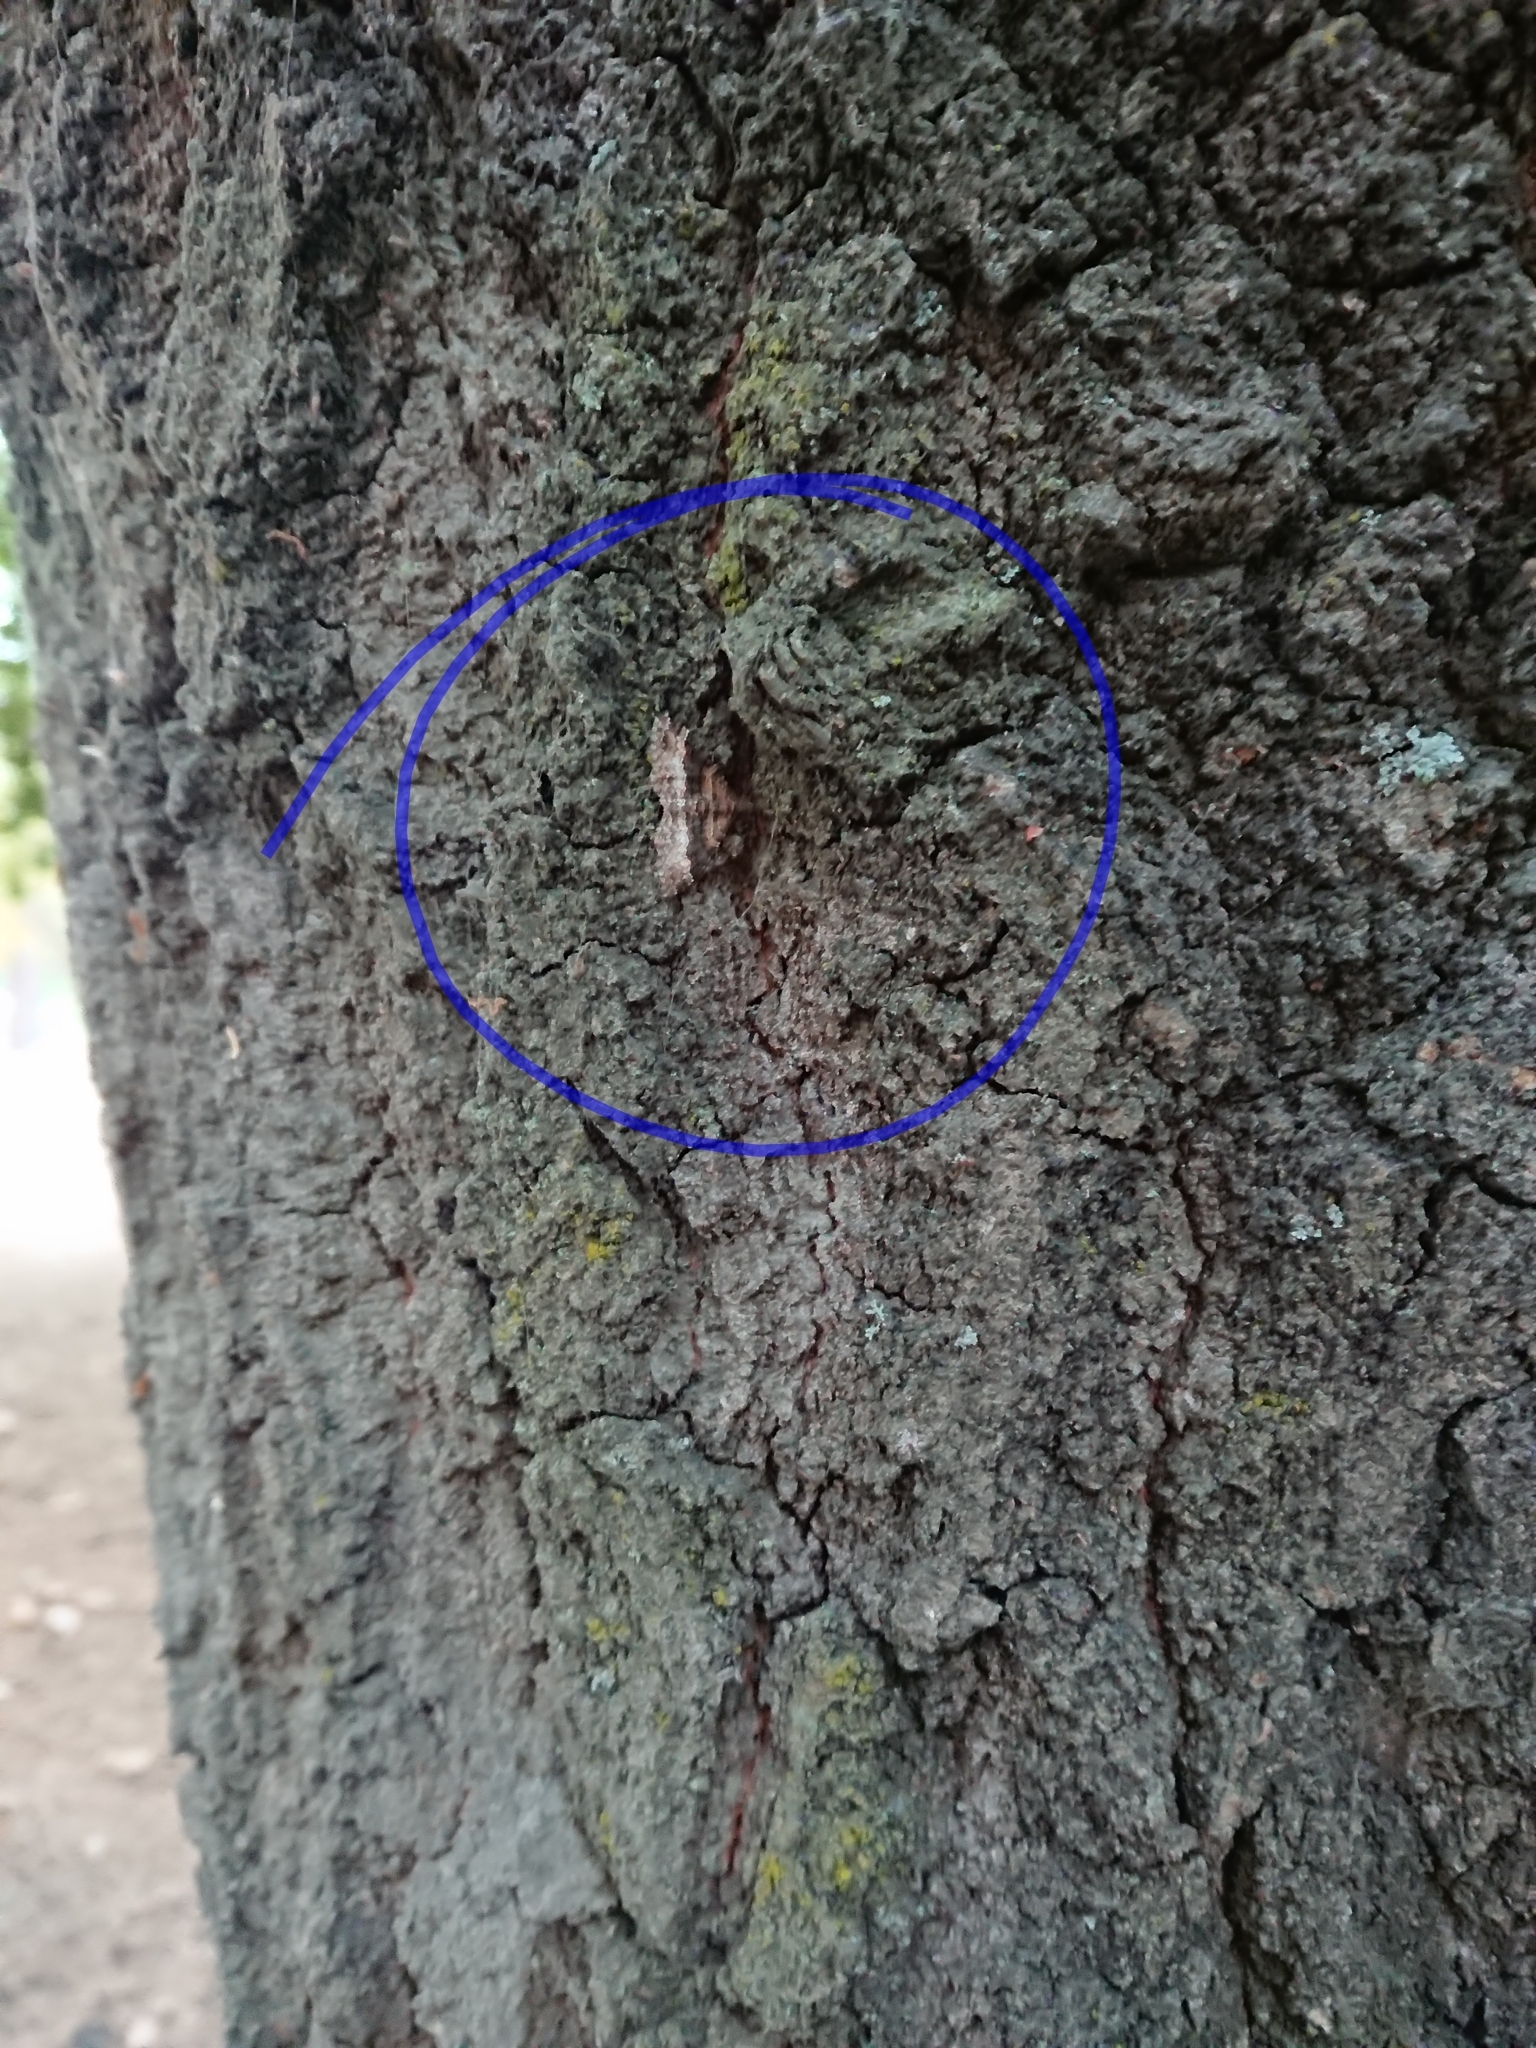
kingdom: Animalia
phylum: Arthropoda
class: Insecta
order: Lepidoptera
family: Geometridae
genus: Epyaxa
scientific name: Epyaxa lucidata
